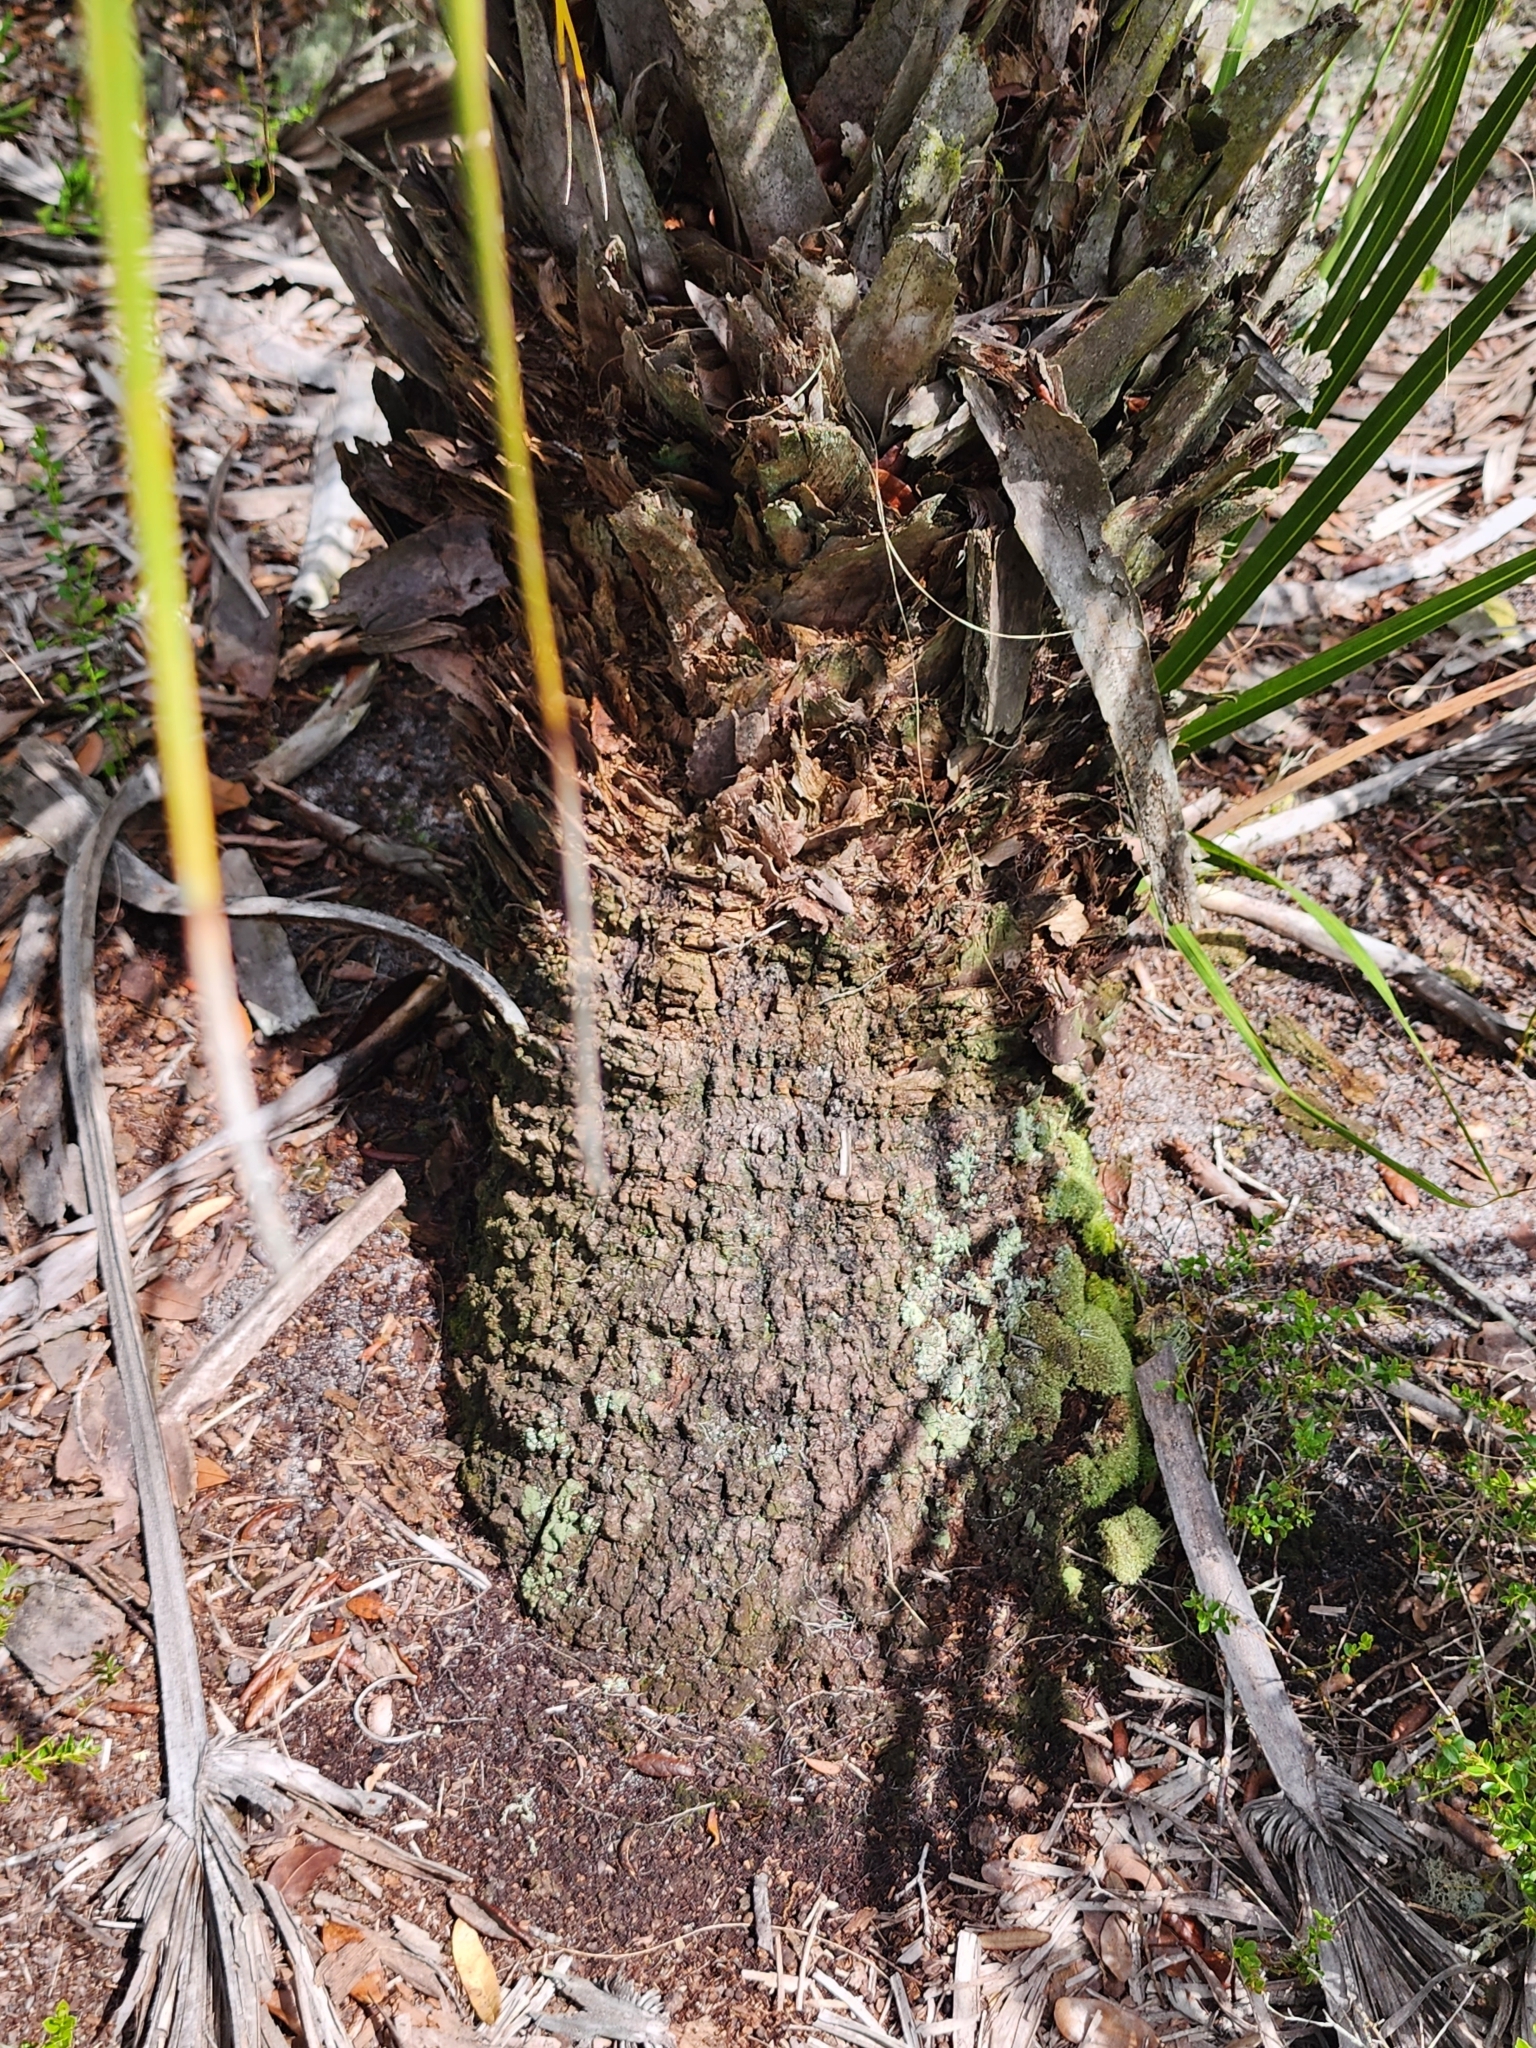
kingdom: Plantae
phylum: Tracheophyta
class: Liliopsida
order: Arecales
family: Arecaceae
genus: Sabal
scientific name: Sabal etonia
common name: Dwarf palmetto
